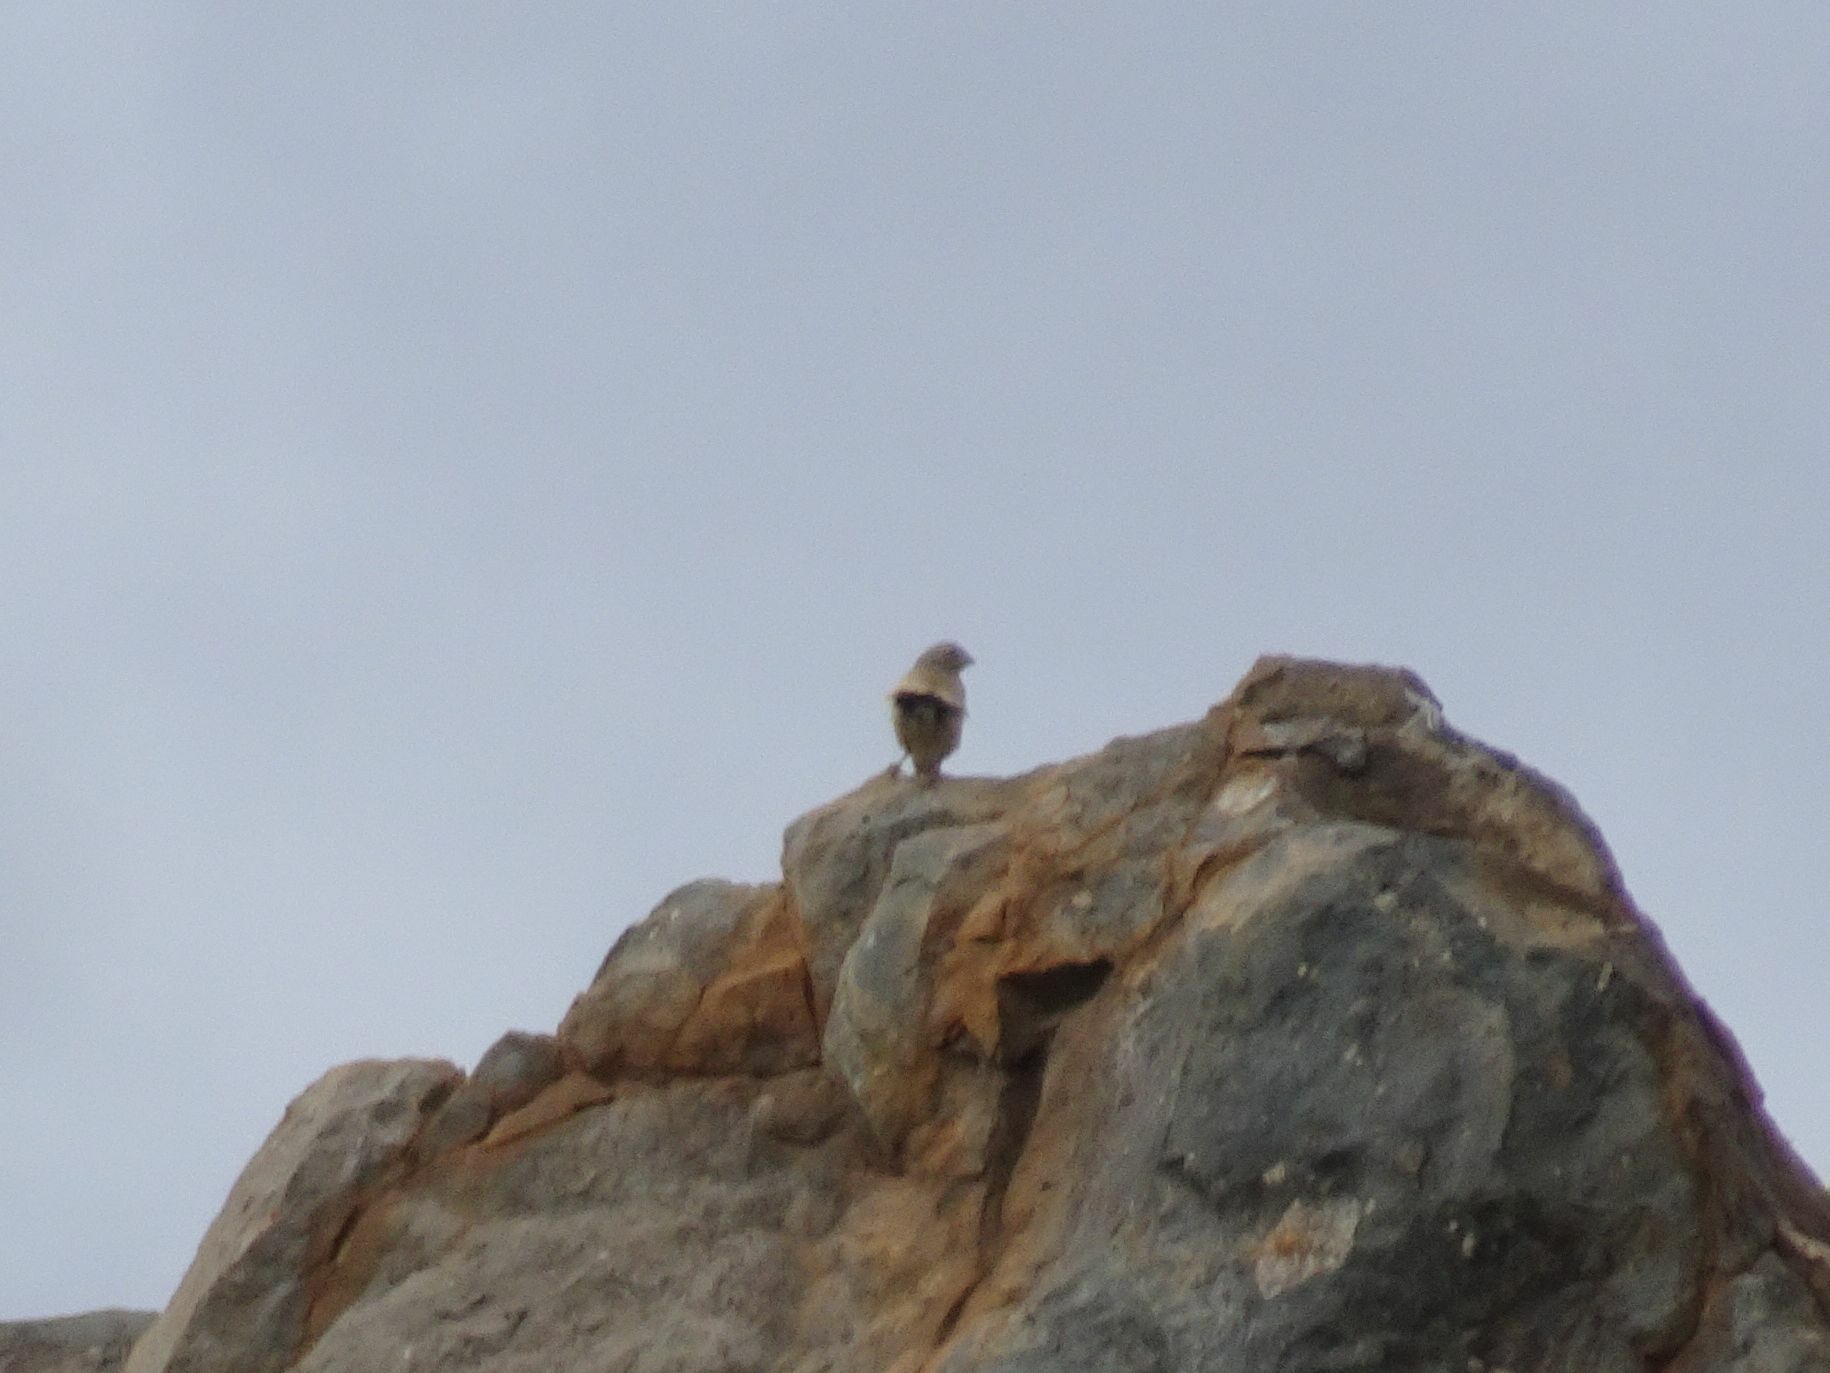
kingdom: Animalia
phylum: Chordata
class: Aves
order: Passeriformes
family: Emberizidae
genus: Emberiza
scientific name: Emberiza impetuani
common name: Lark-like bunting
